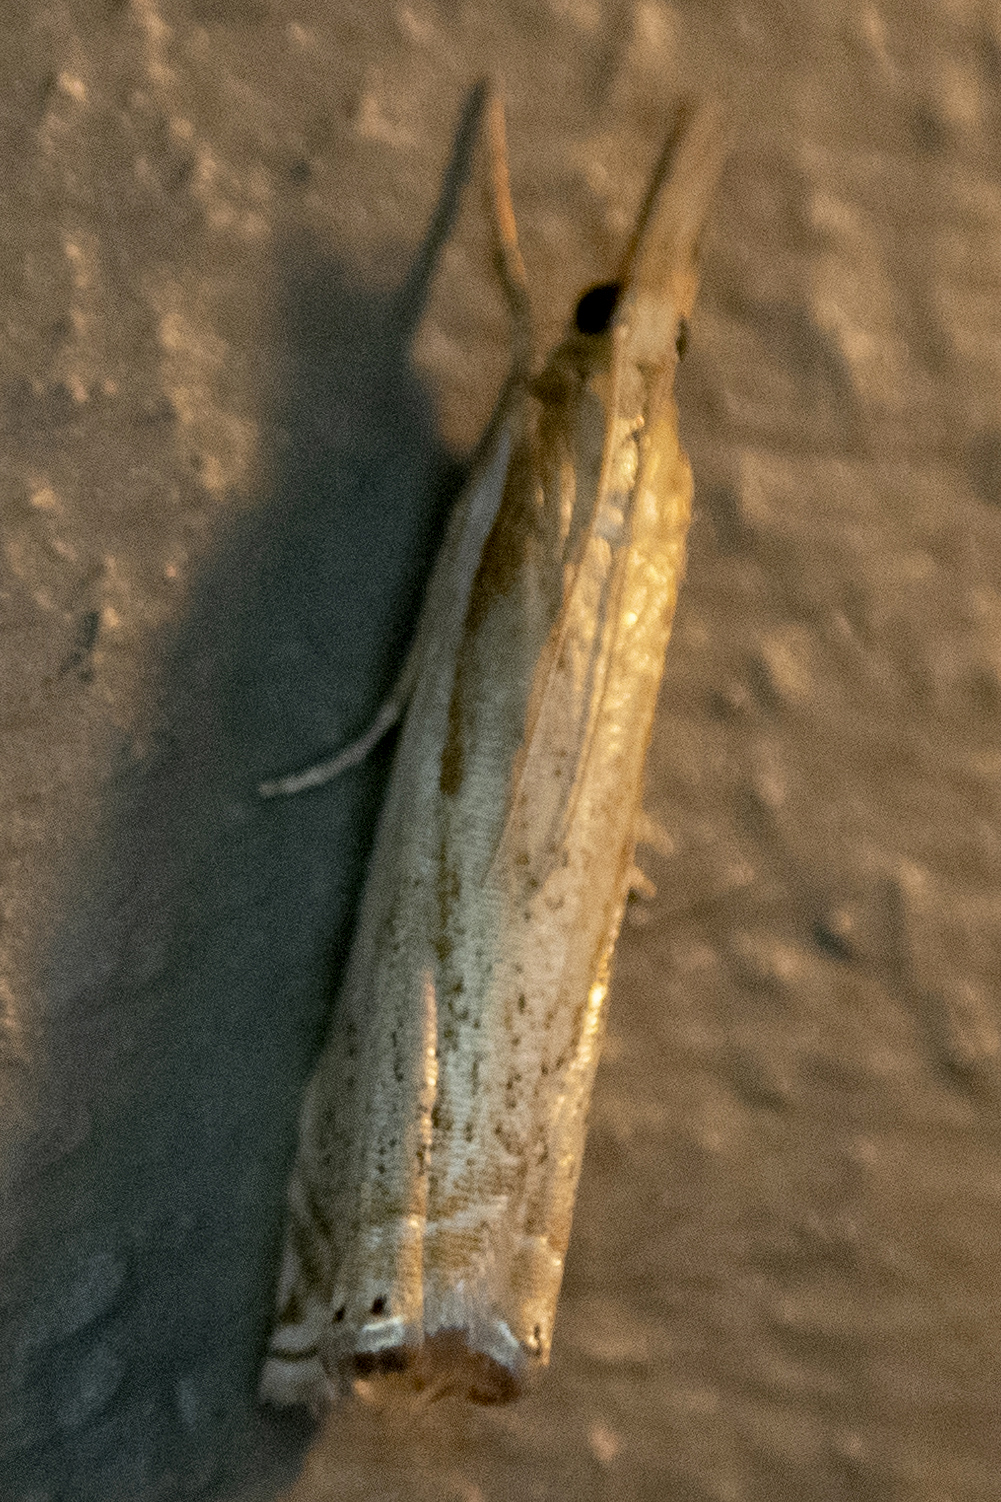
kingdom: Animalia
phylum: Arthropoda
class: Insecta
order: Lepidoptera
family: Crambidae
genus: Crambus
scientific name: Crambus agitatellus
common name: Double-banded grass-veneer
